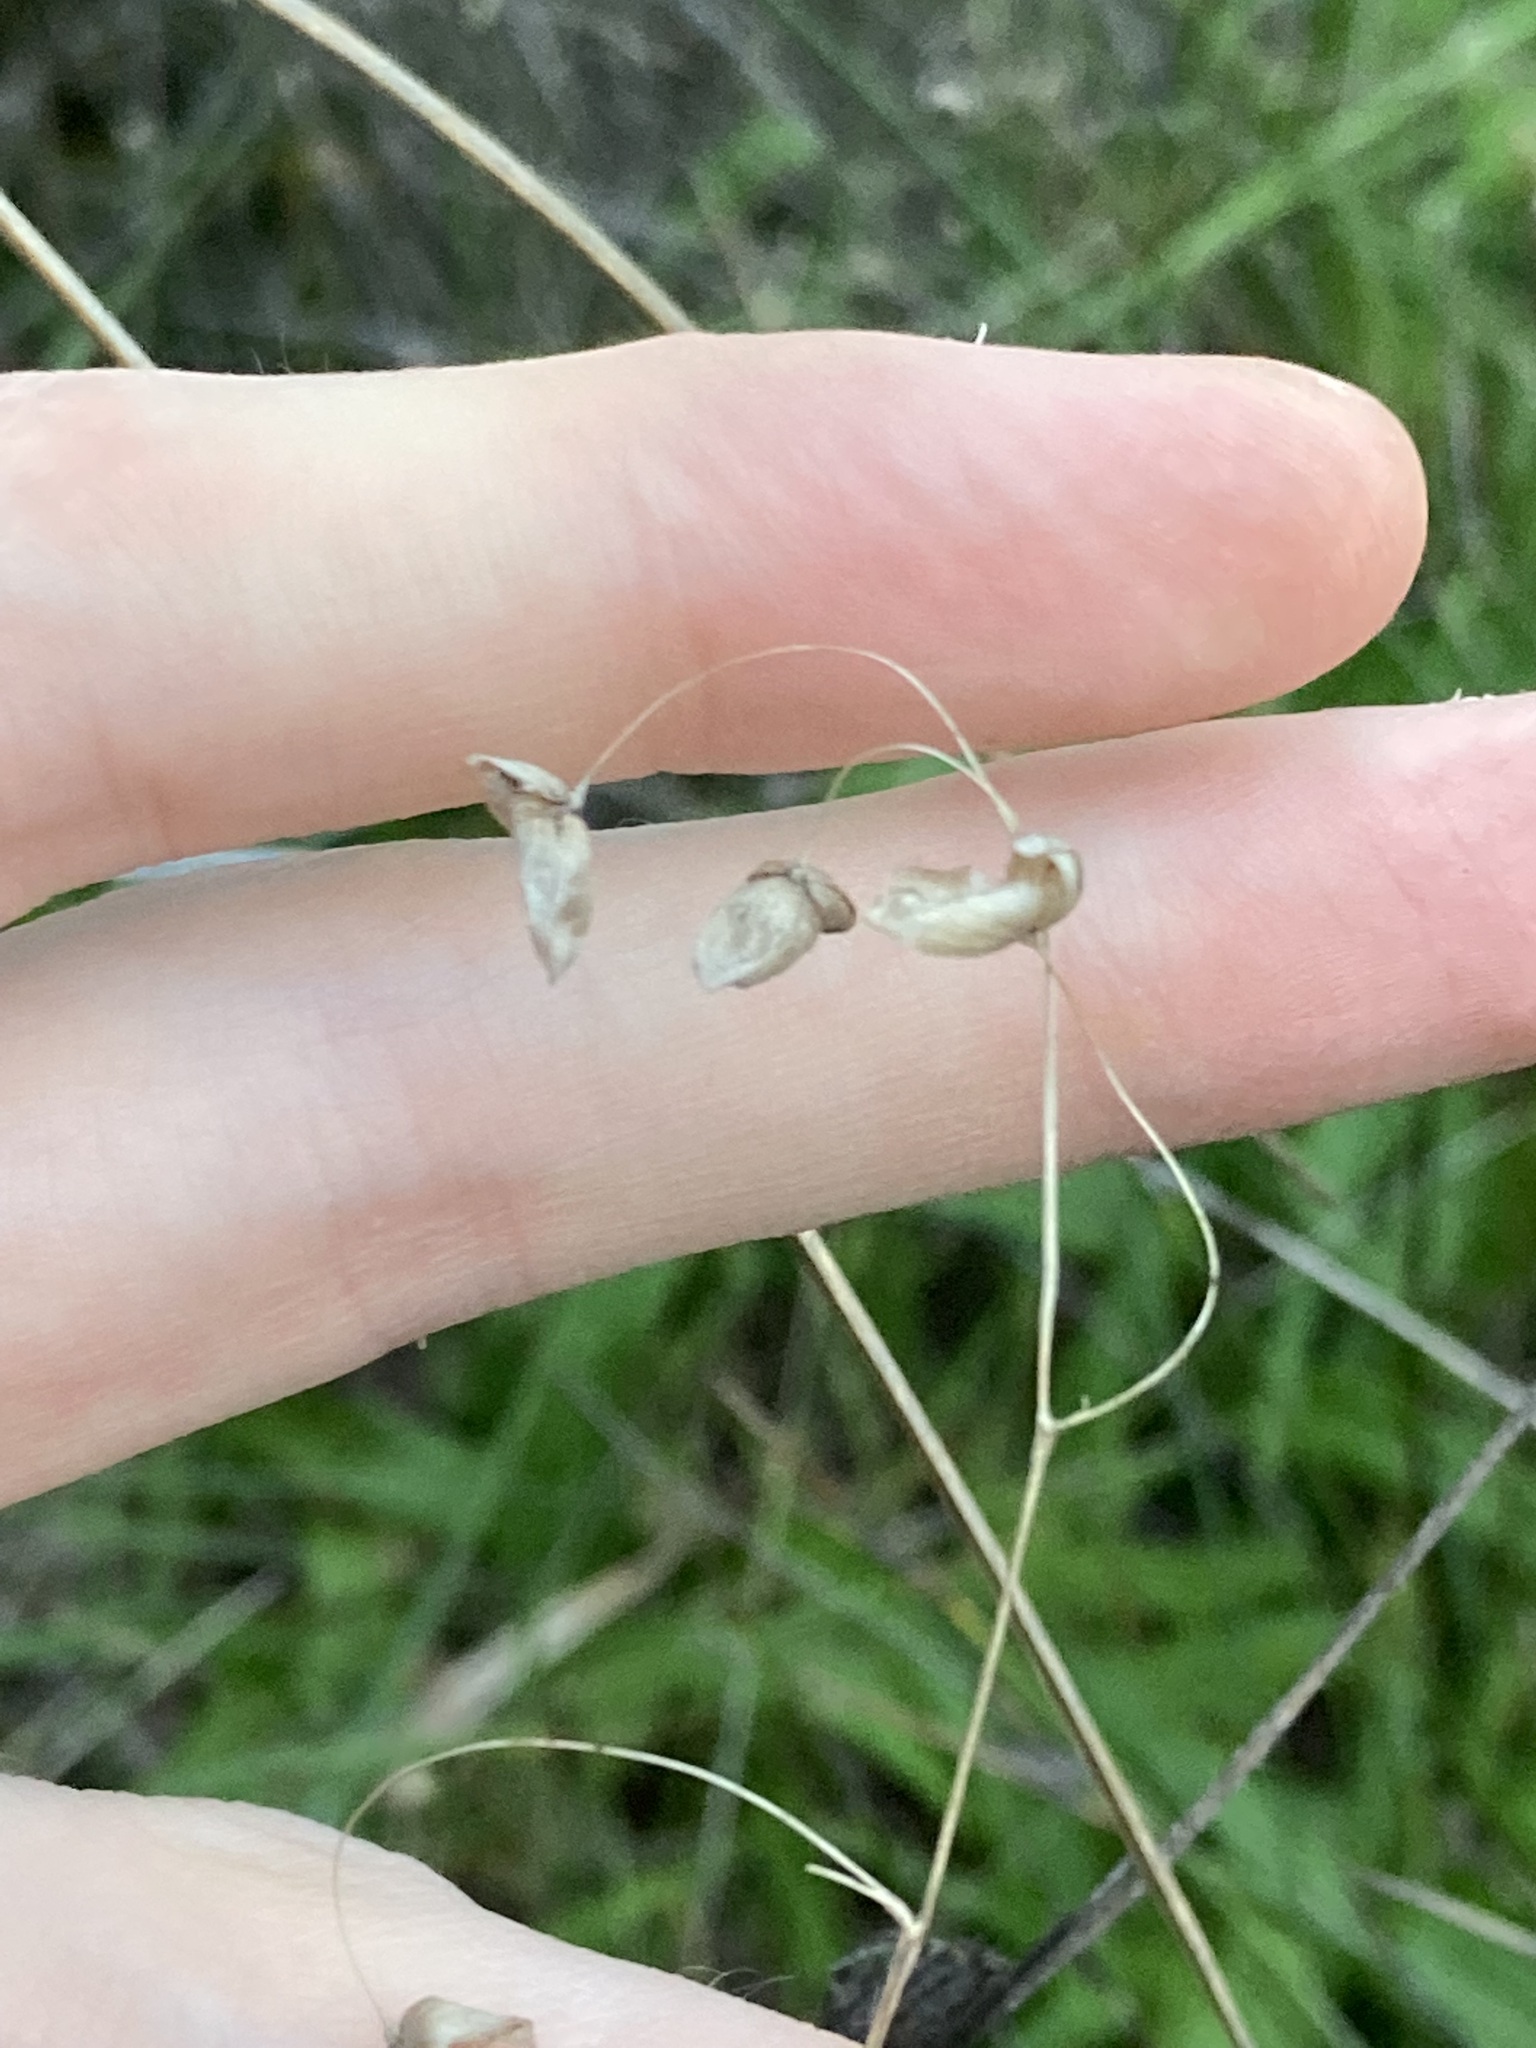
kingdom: Plantae
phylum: Tracheophyta
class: Liliopsida
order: Poales
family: Poaceae
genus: Briza
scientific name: Briza maxima
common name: Big quakinggrass
